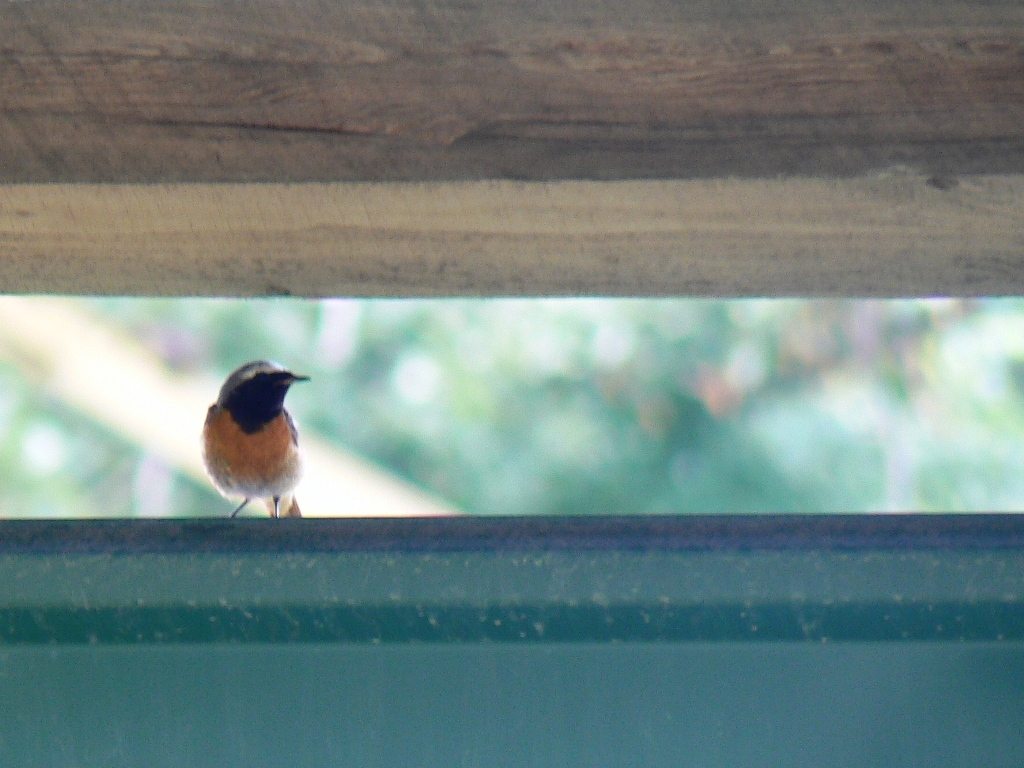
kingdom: Animalia
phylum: Chordata
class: Aves
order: Passeriformes
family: Muscicapidae
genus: Phoenicurus
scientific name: Phoenicurus phoenicurus
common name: Common redstart
